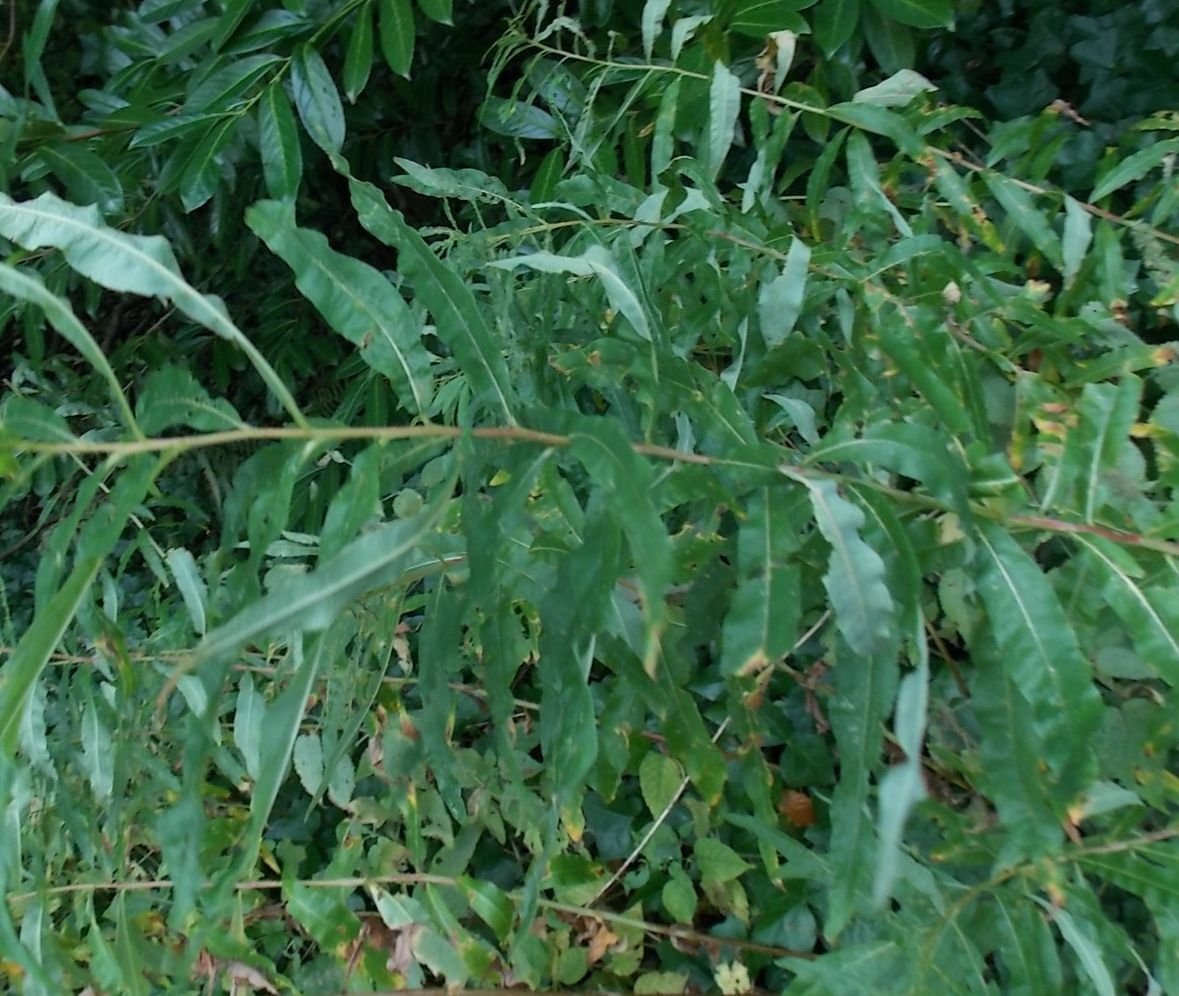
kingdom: Plantae
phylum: Tracheophyta
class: Magnoliopsida
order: Myrtales
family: Onagraceae
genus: Chamaenerion
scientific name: Chamaenerion angustifolium
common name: Fireweed
